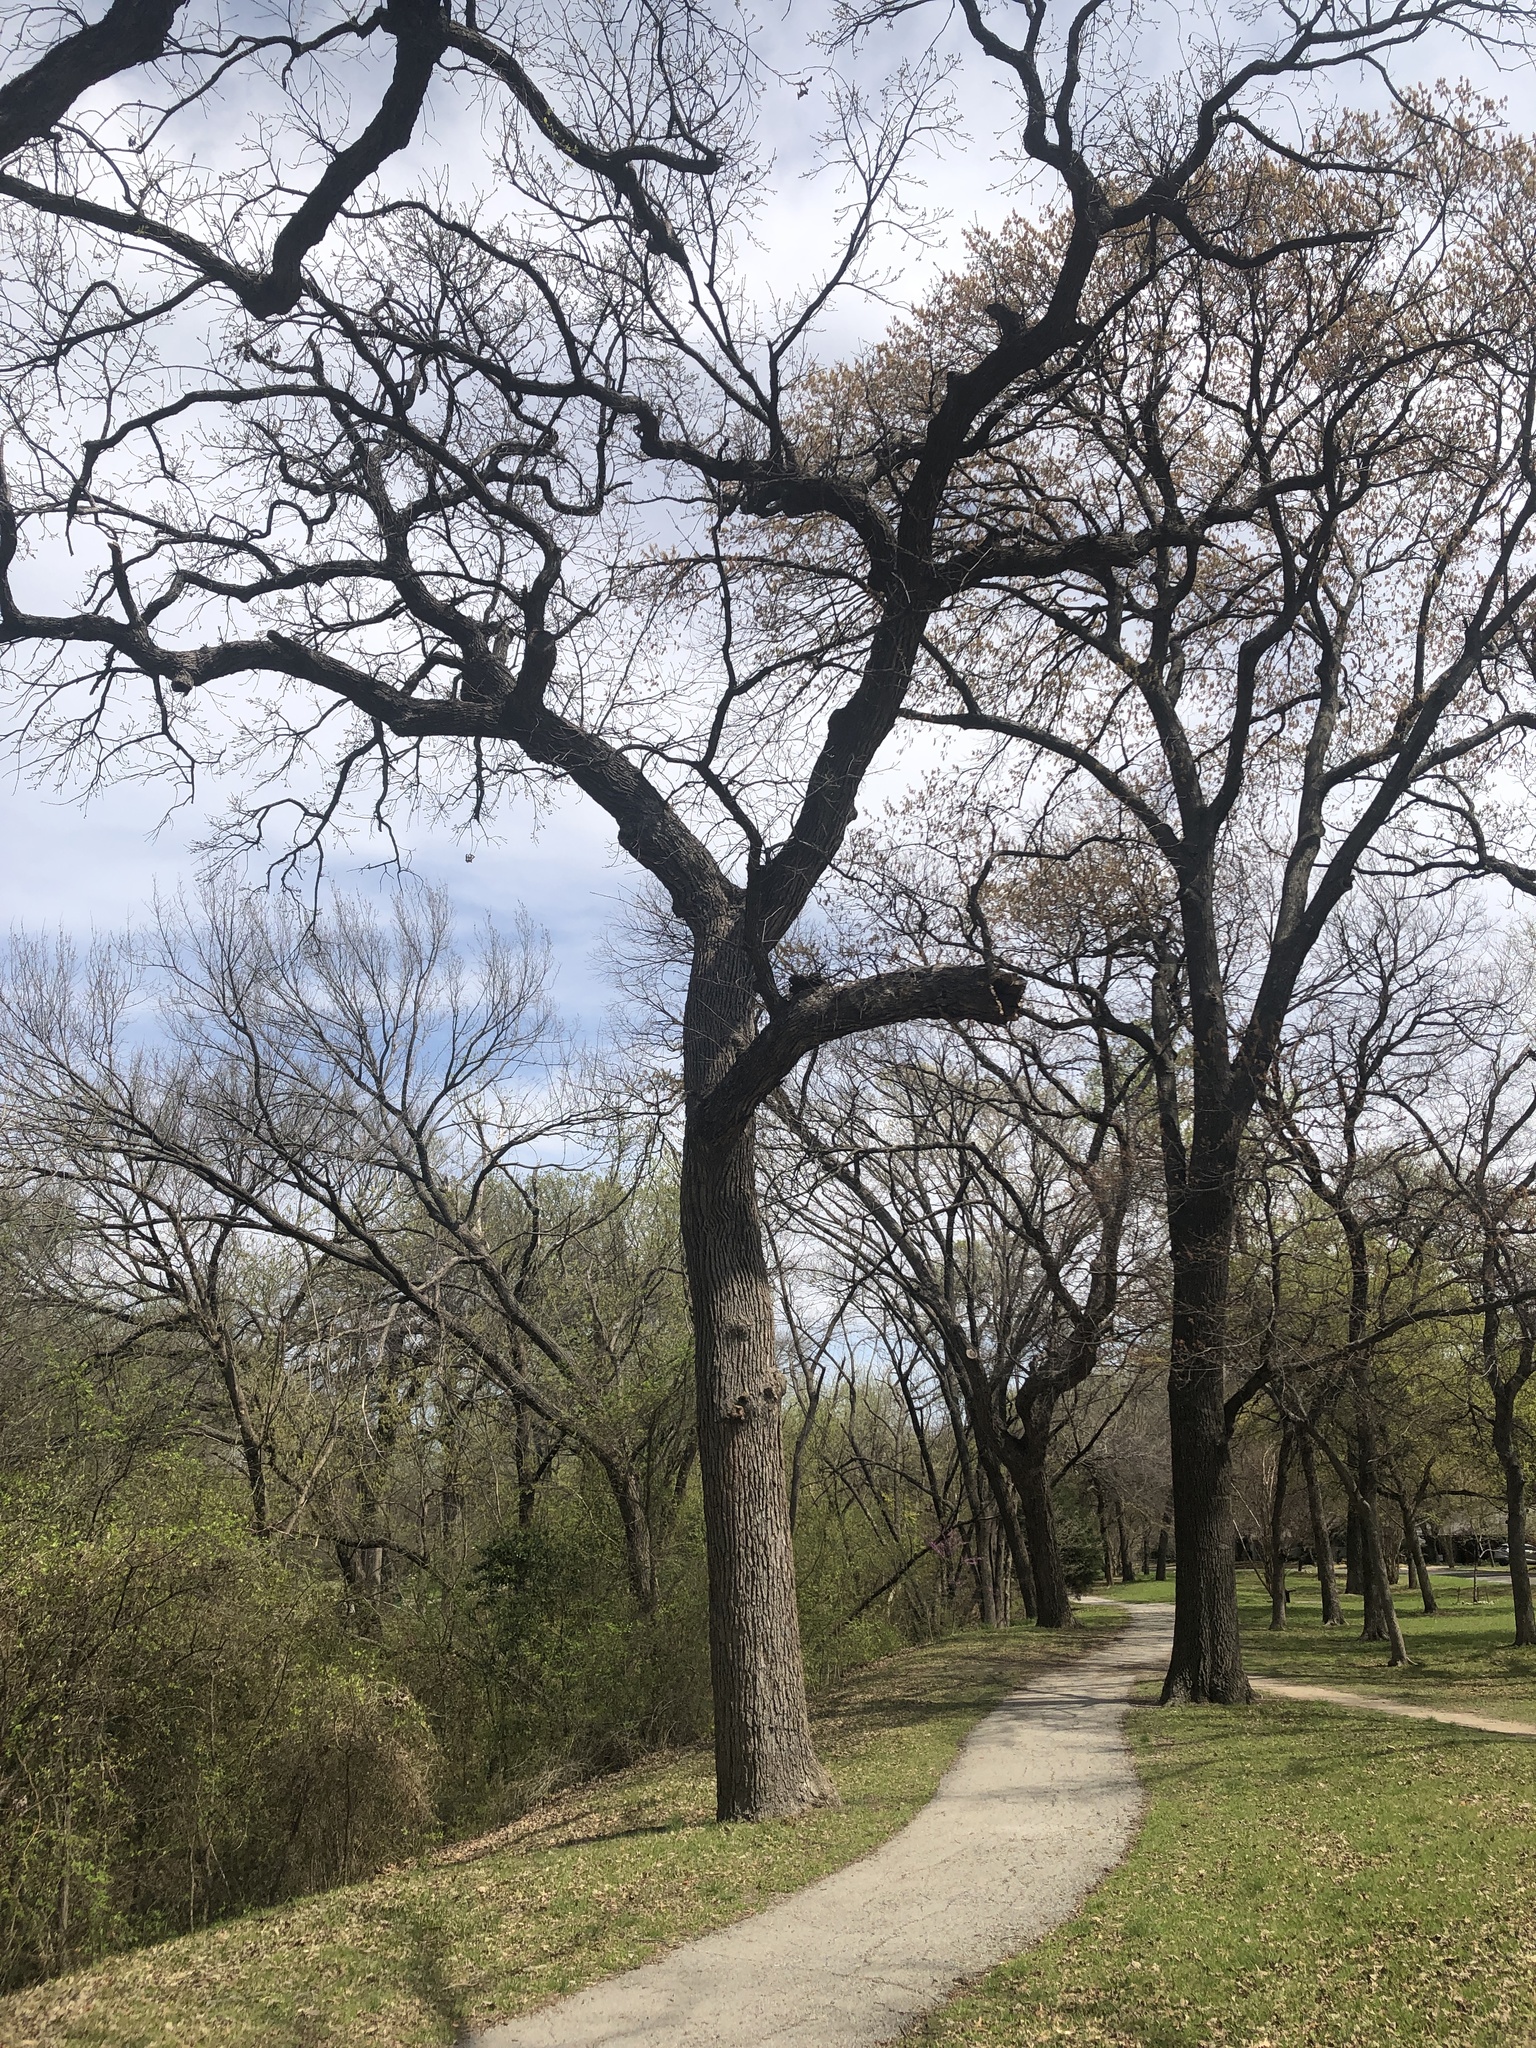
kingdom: Plantae
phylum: Tracheophyta
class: Magnoliopsida
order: Fagales
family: Fagaceae
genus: Quercus
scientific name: Quercus macrocarpa
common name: Bur oak
